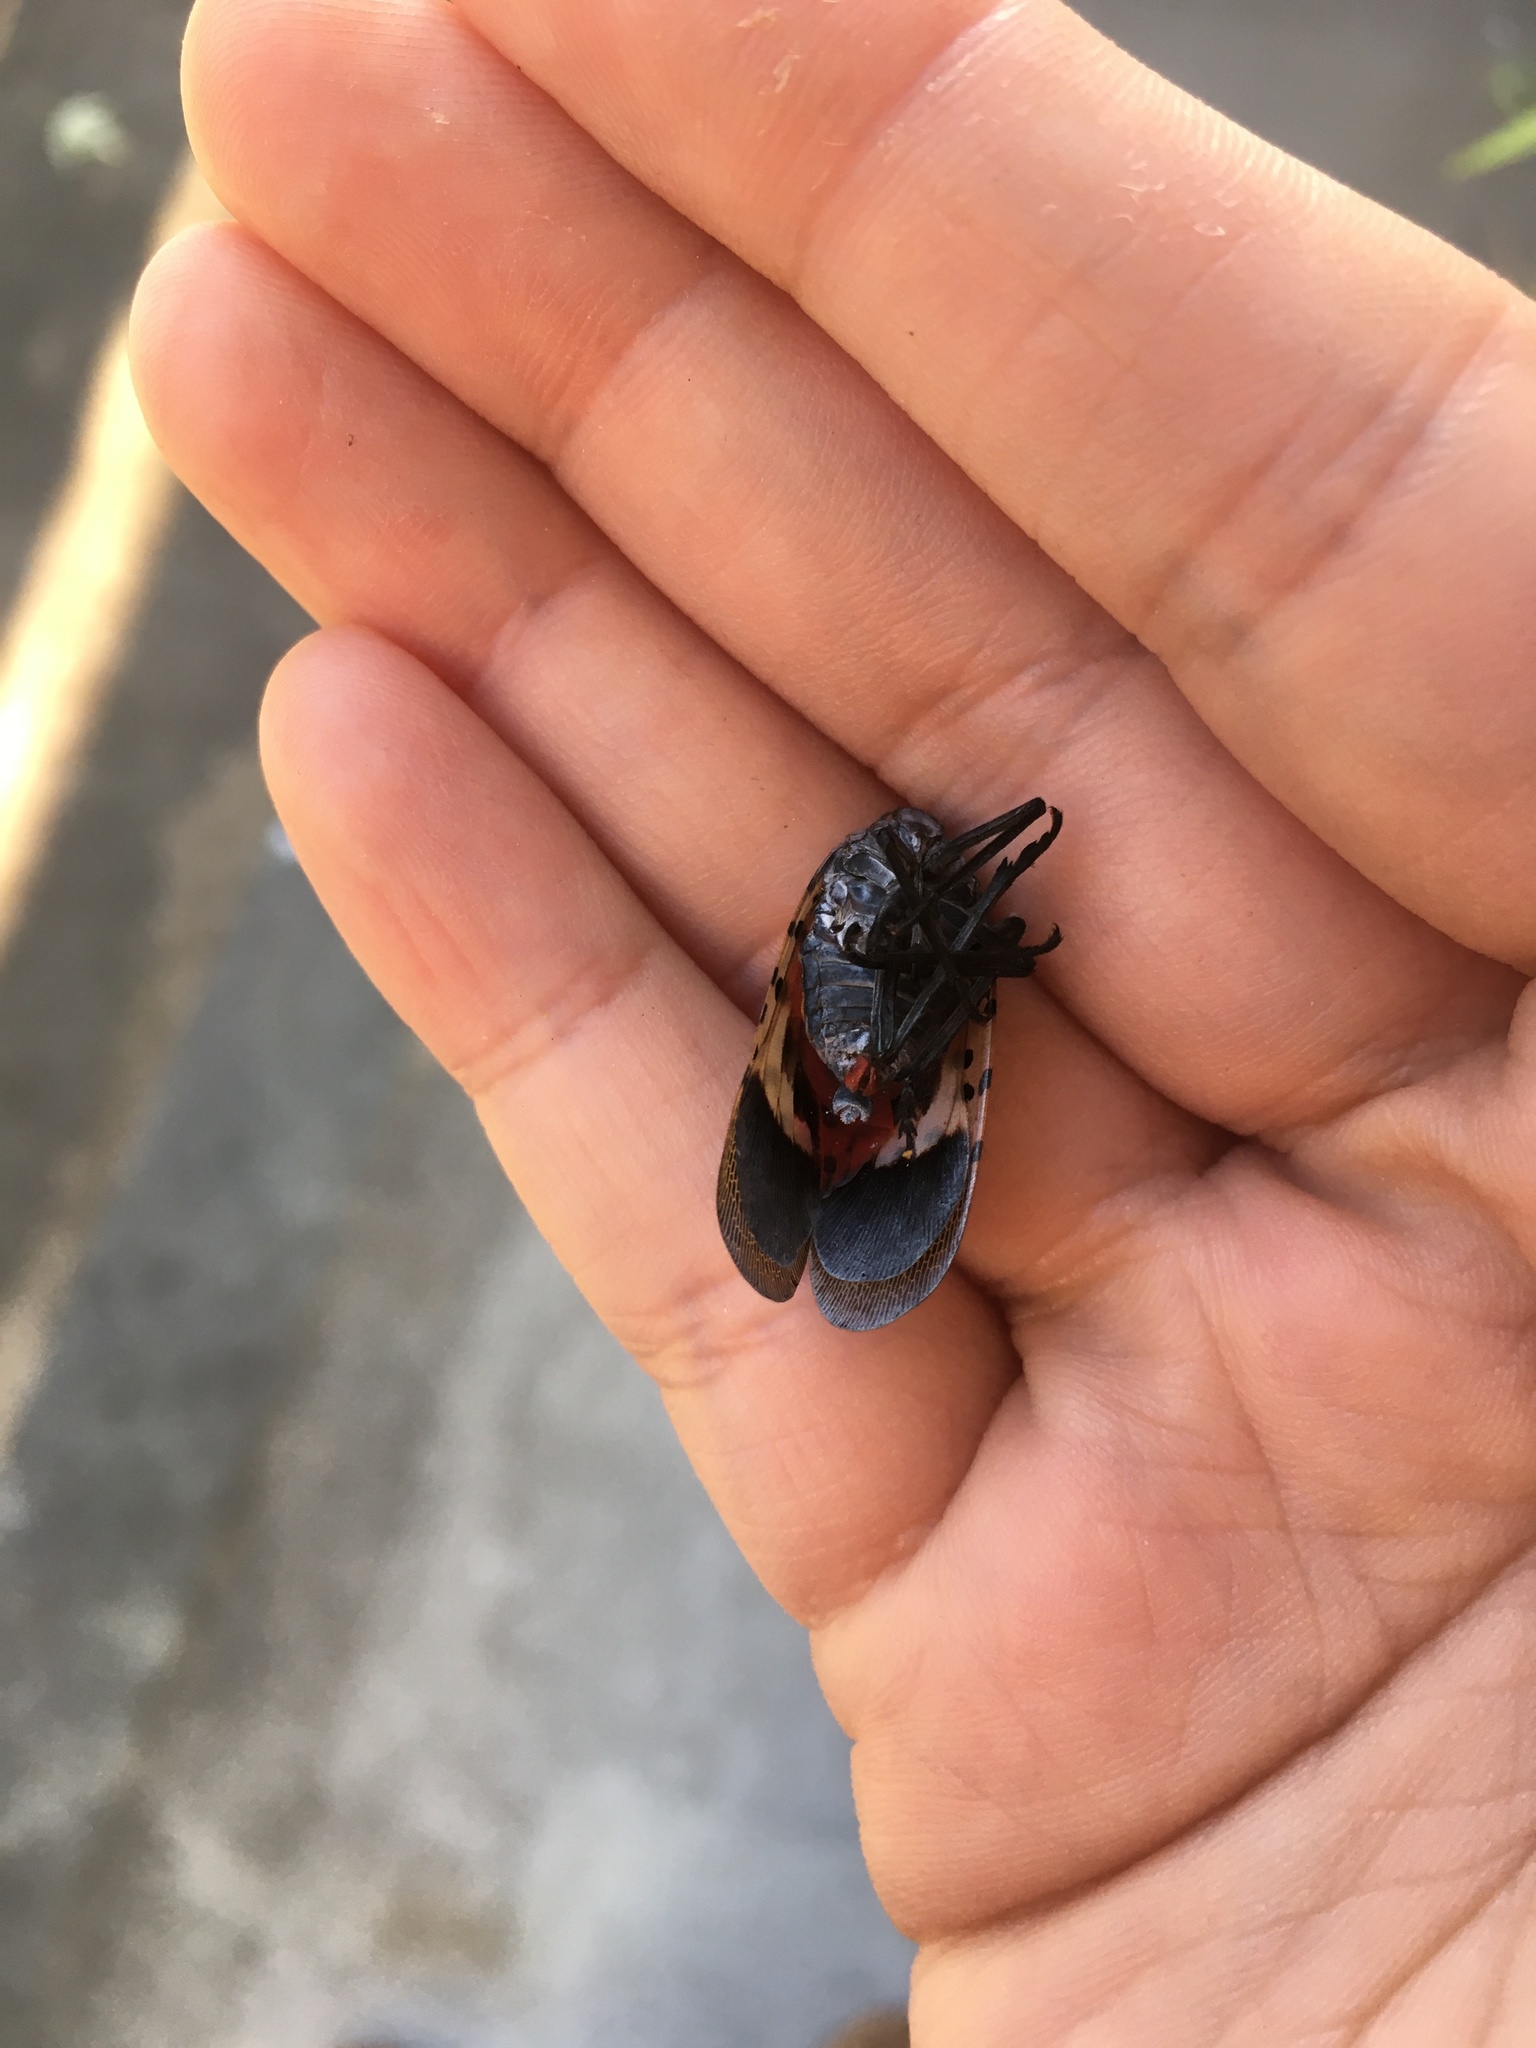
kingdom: Animalia
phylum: Arthropoda
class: Insecta
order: Hemiptera
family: Fulgoridae
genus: Lycorma
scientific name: Lycorma delicatula
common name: Spotted lanternfly
